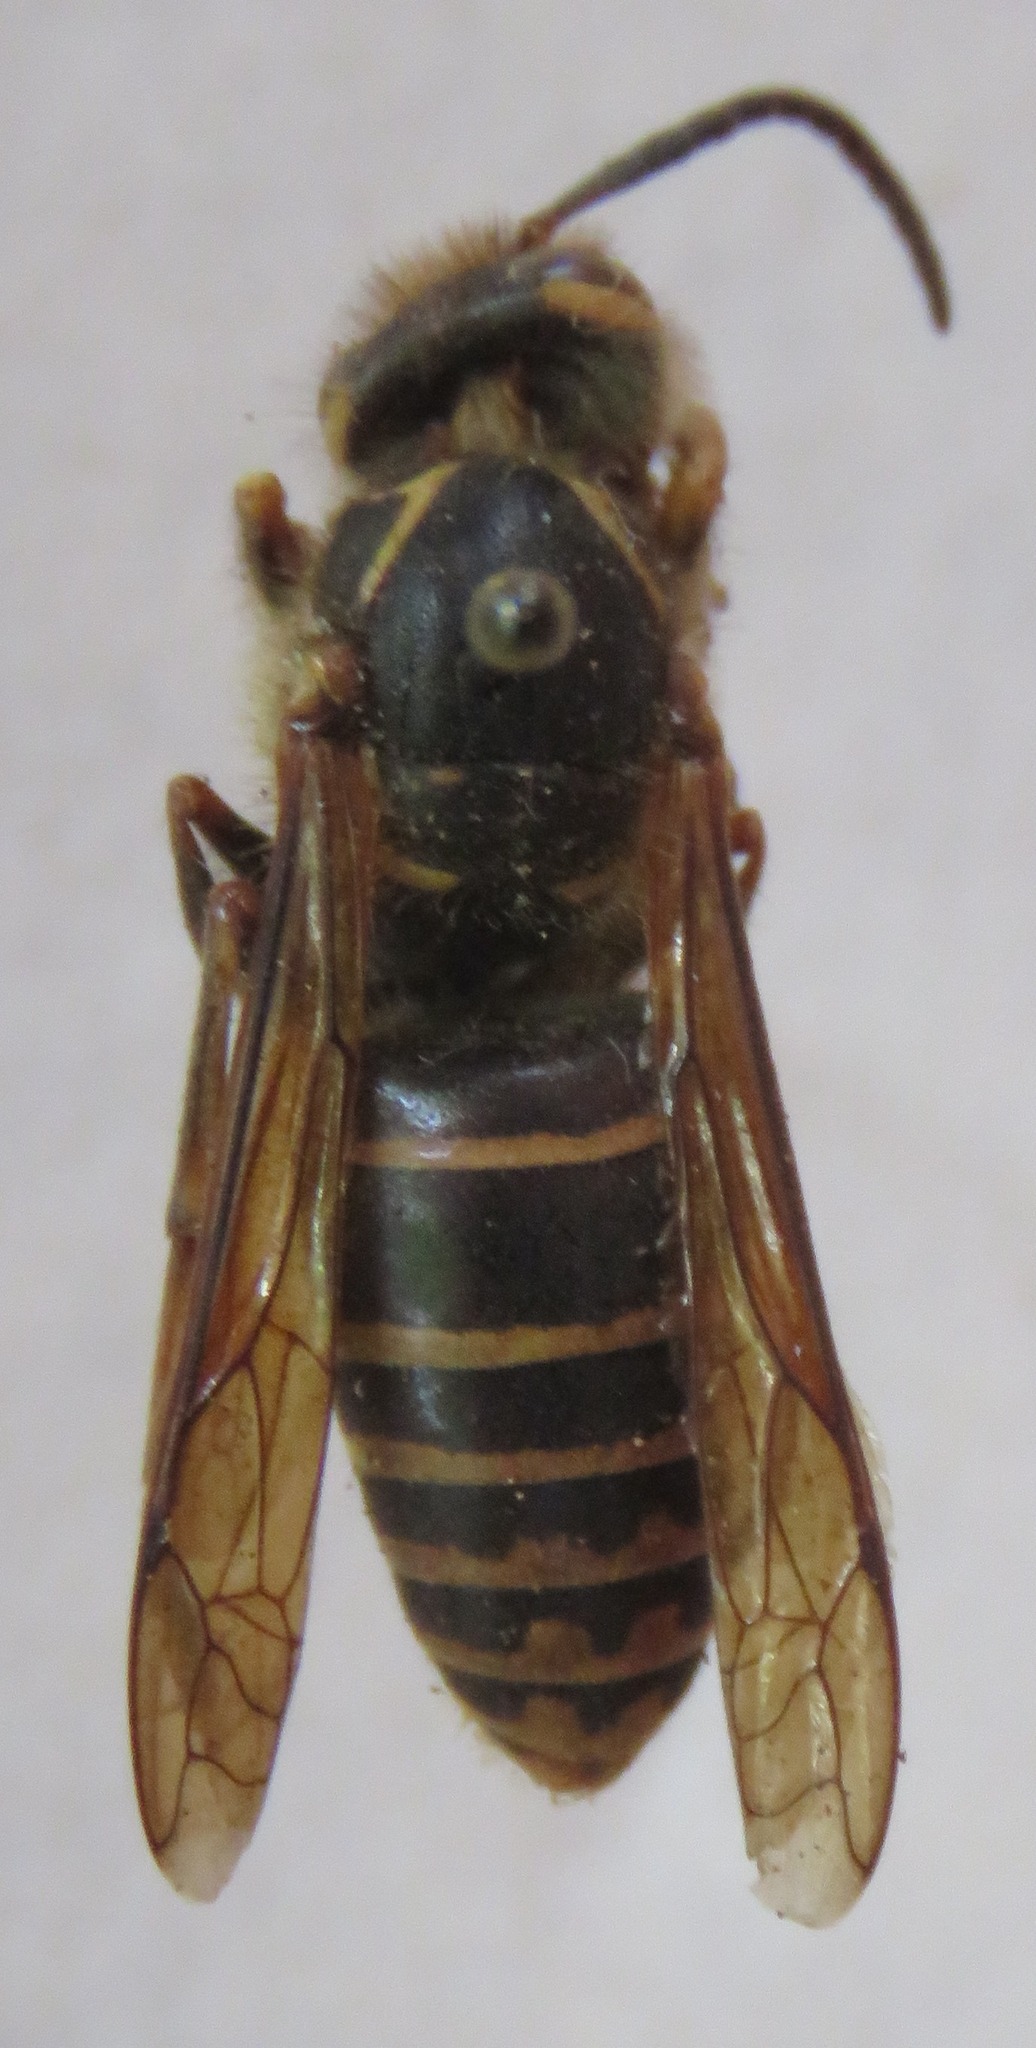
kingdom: Animalia
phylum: Arthropoda
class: Insecta
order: Hymenoptera
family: Vespidae
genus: Dolichovespula
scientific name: Dolichovespula media
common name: Median wasp
